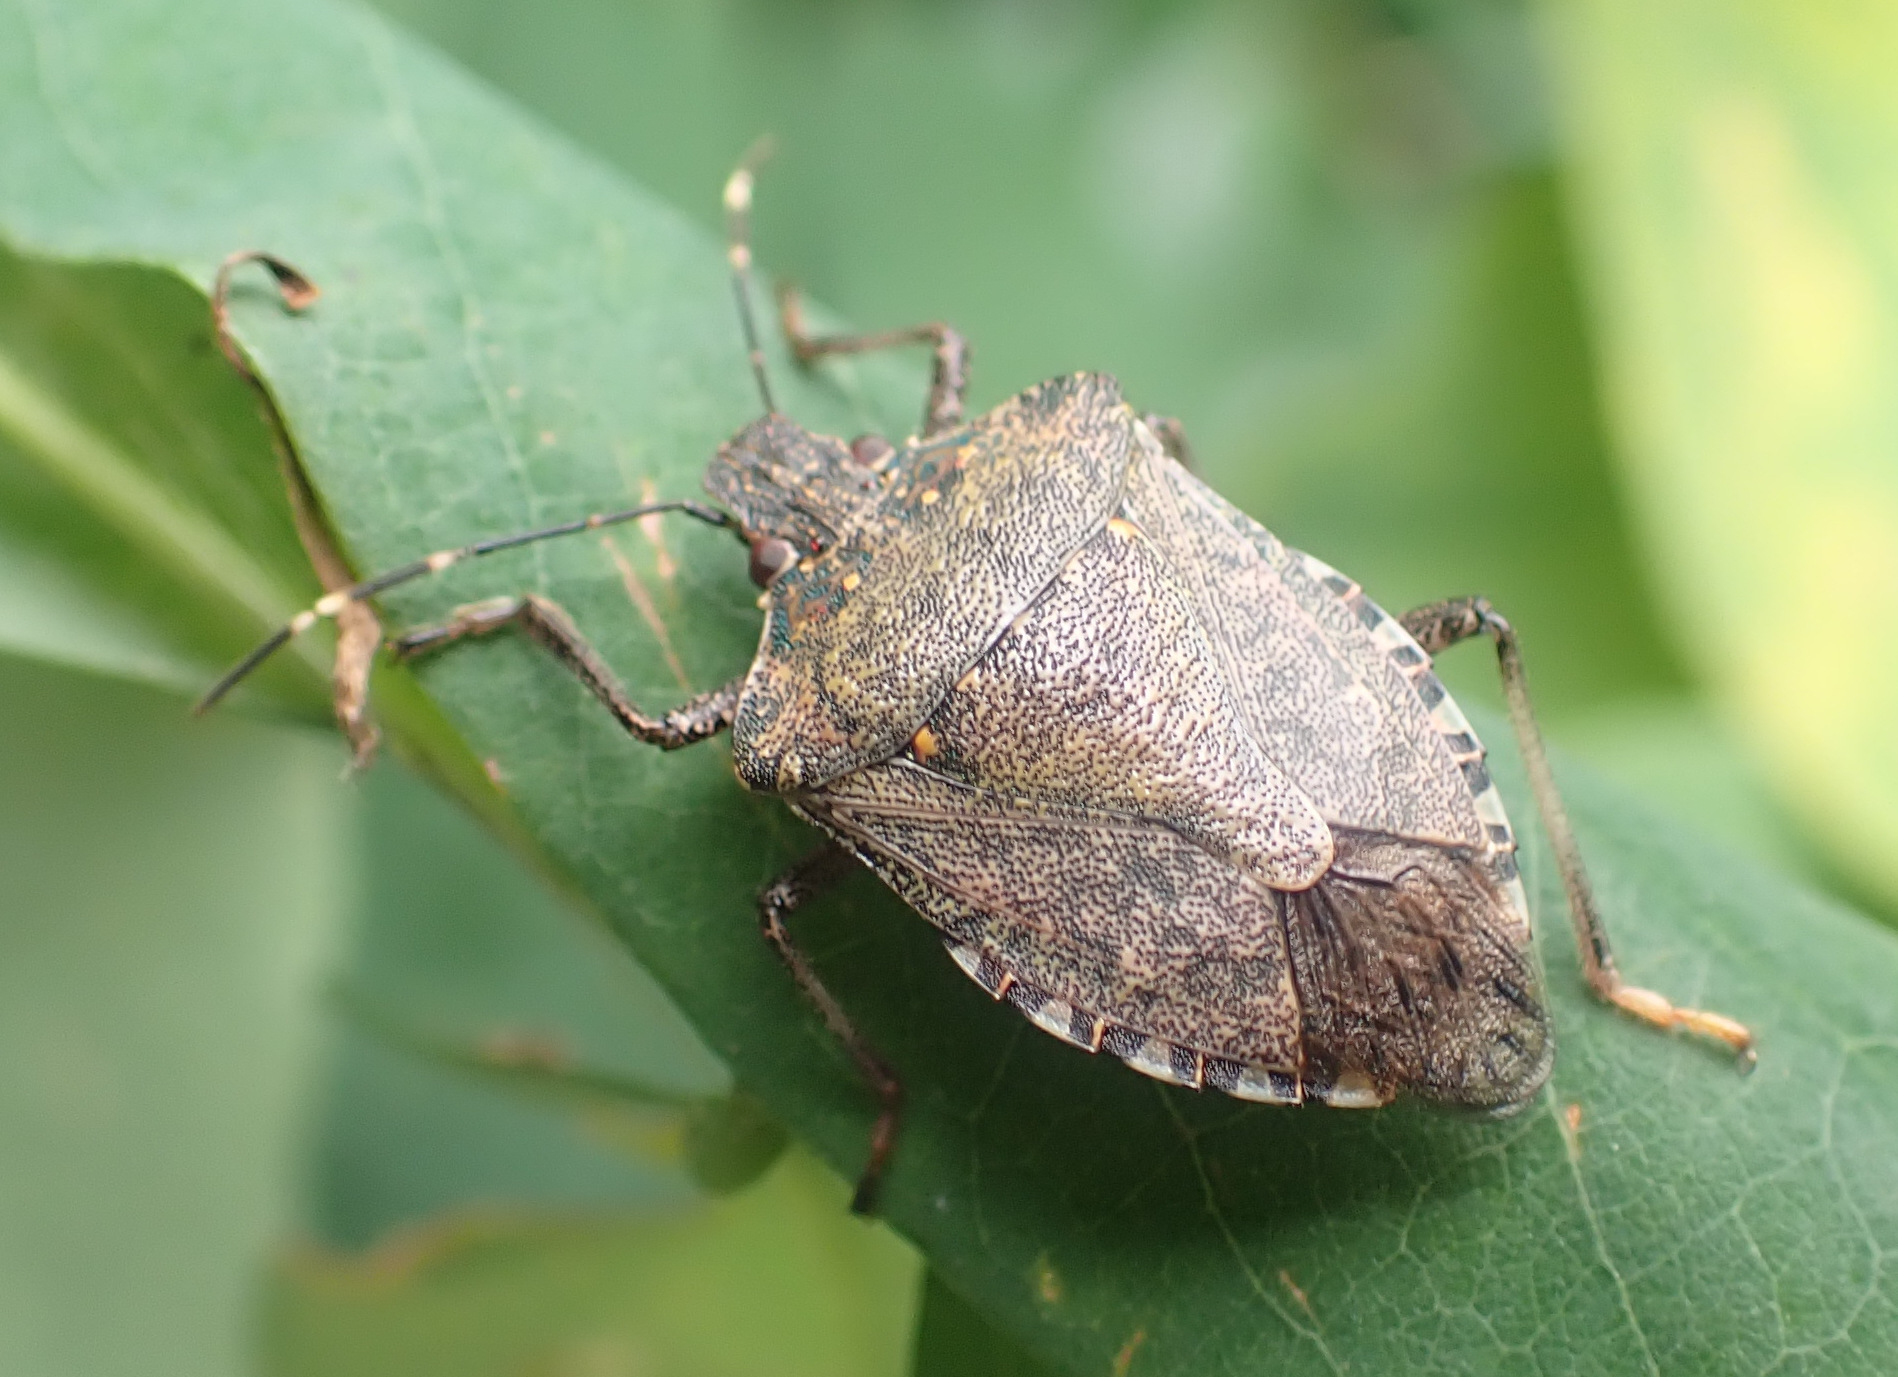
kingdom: Animalia
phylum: Arthropoda
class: Insecta
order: Hemiptera
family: Pentatomidae
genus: Halyomorpha
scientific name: Halyomorpha halys
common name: Brown marmorated stink bug
